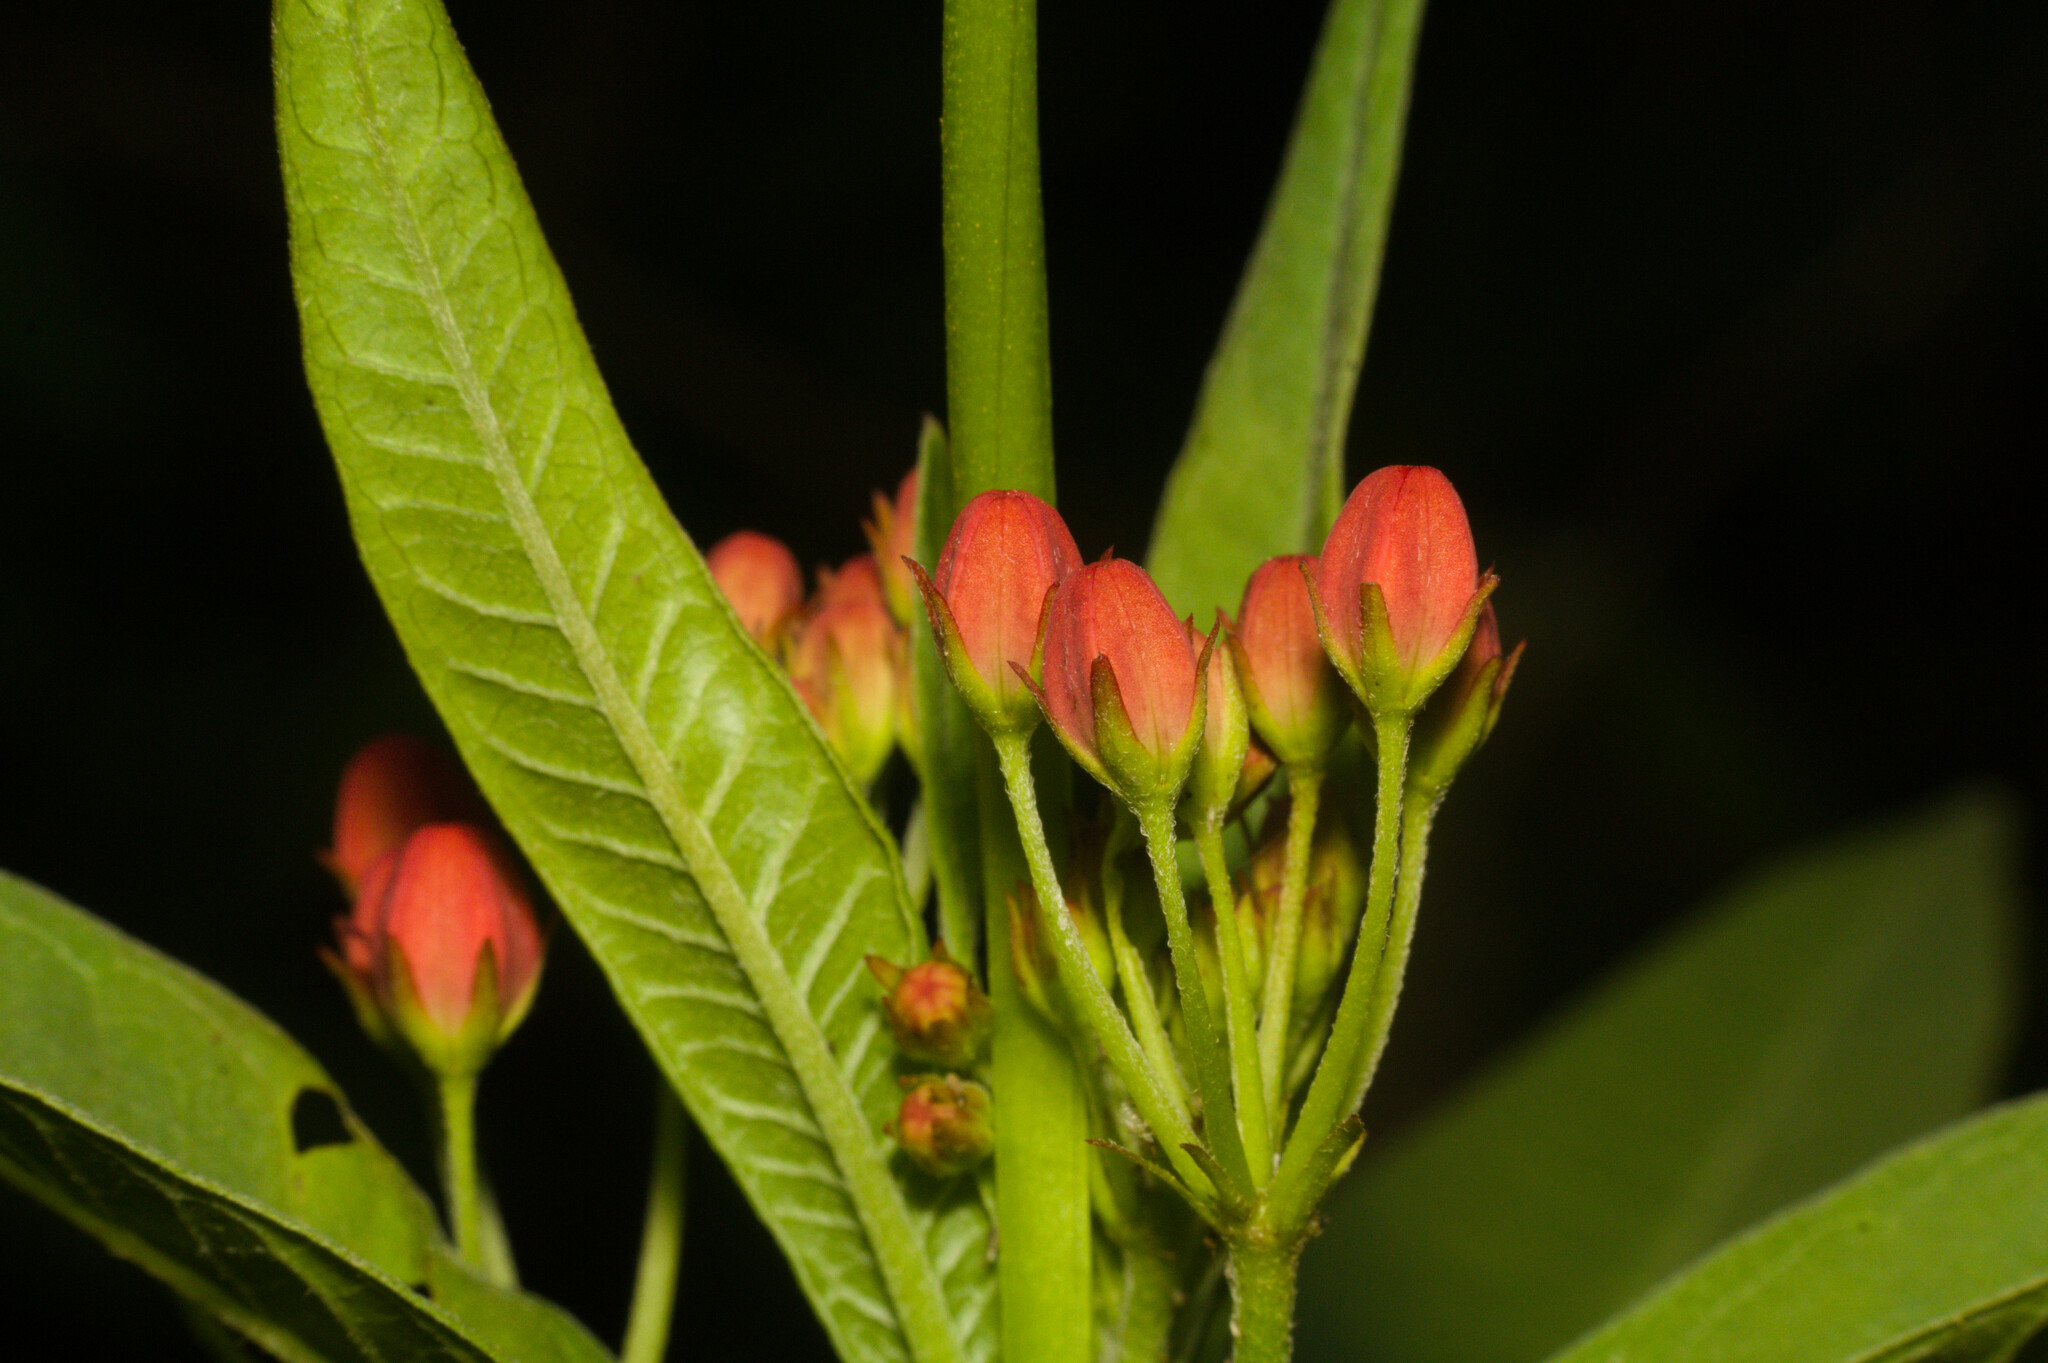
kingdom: Plantae
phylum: Tracheophyta
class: Magnoliopsida
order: Gentianales
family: Apocynaceae
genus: Asclepias
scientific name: Asclepias curassavica
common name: Bloodflower
